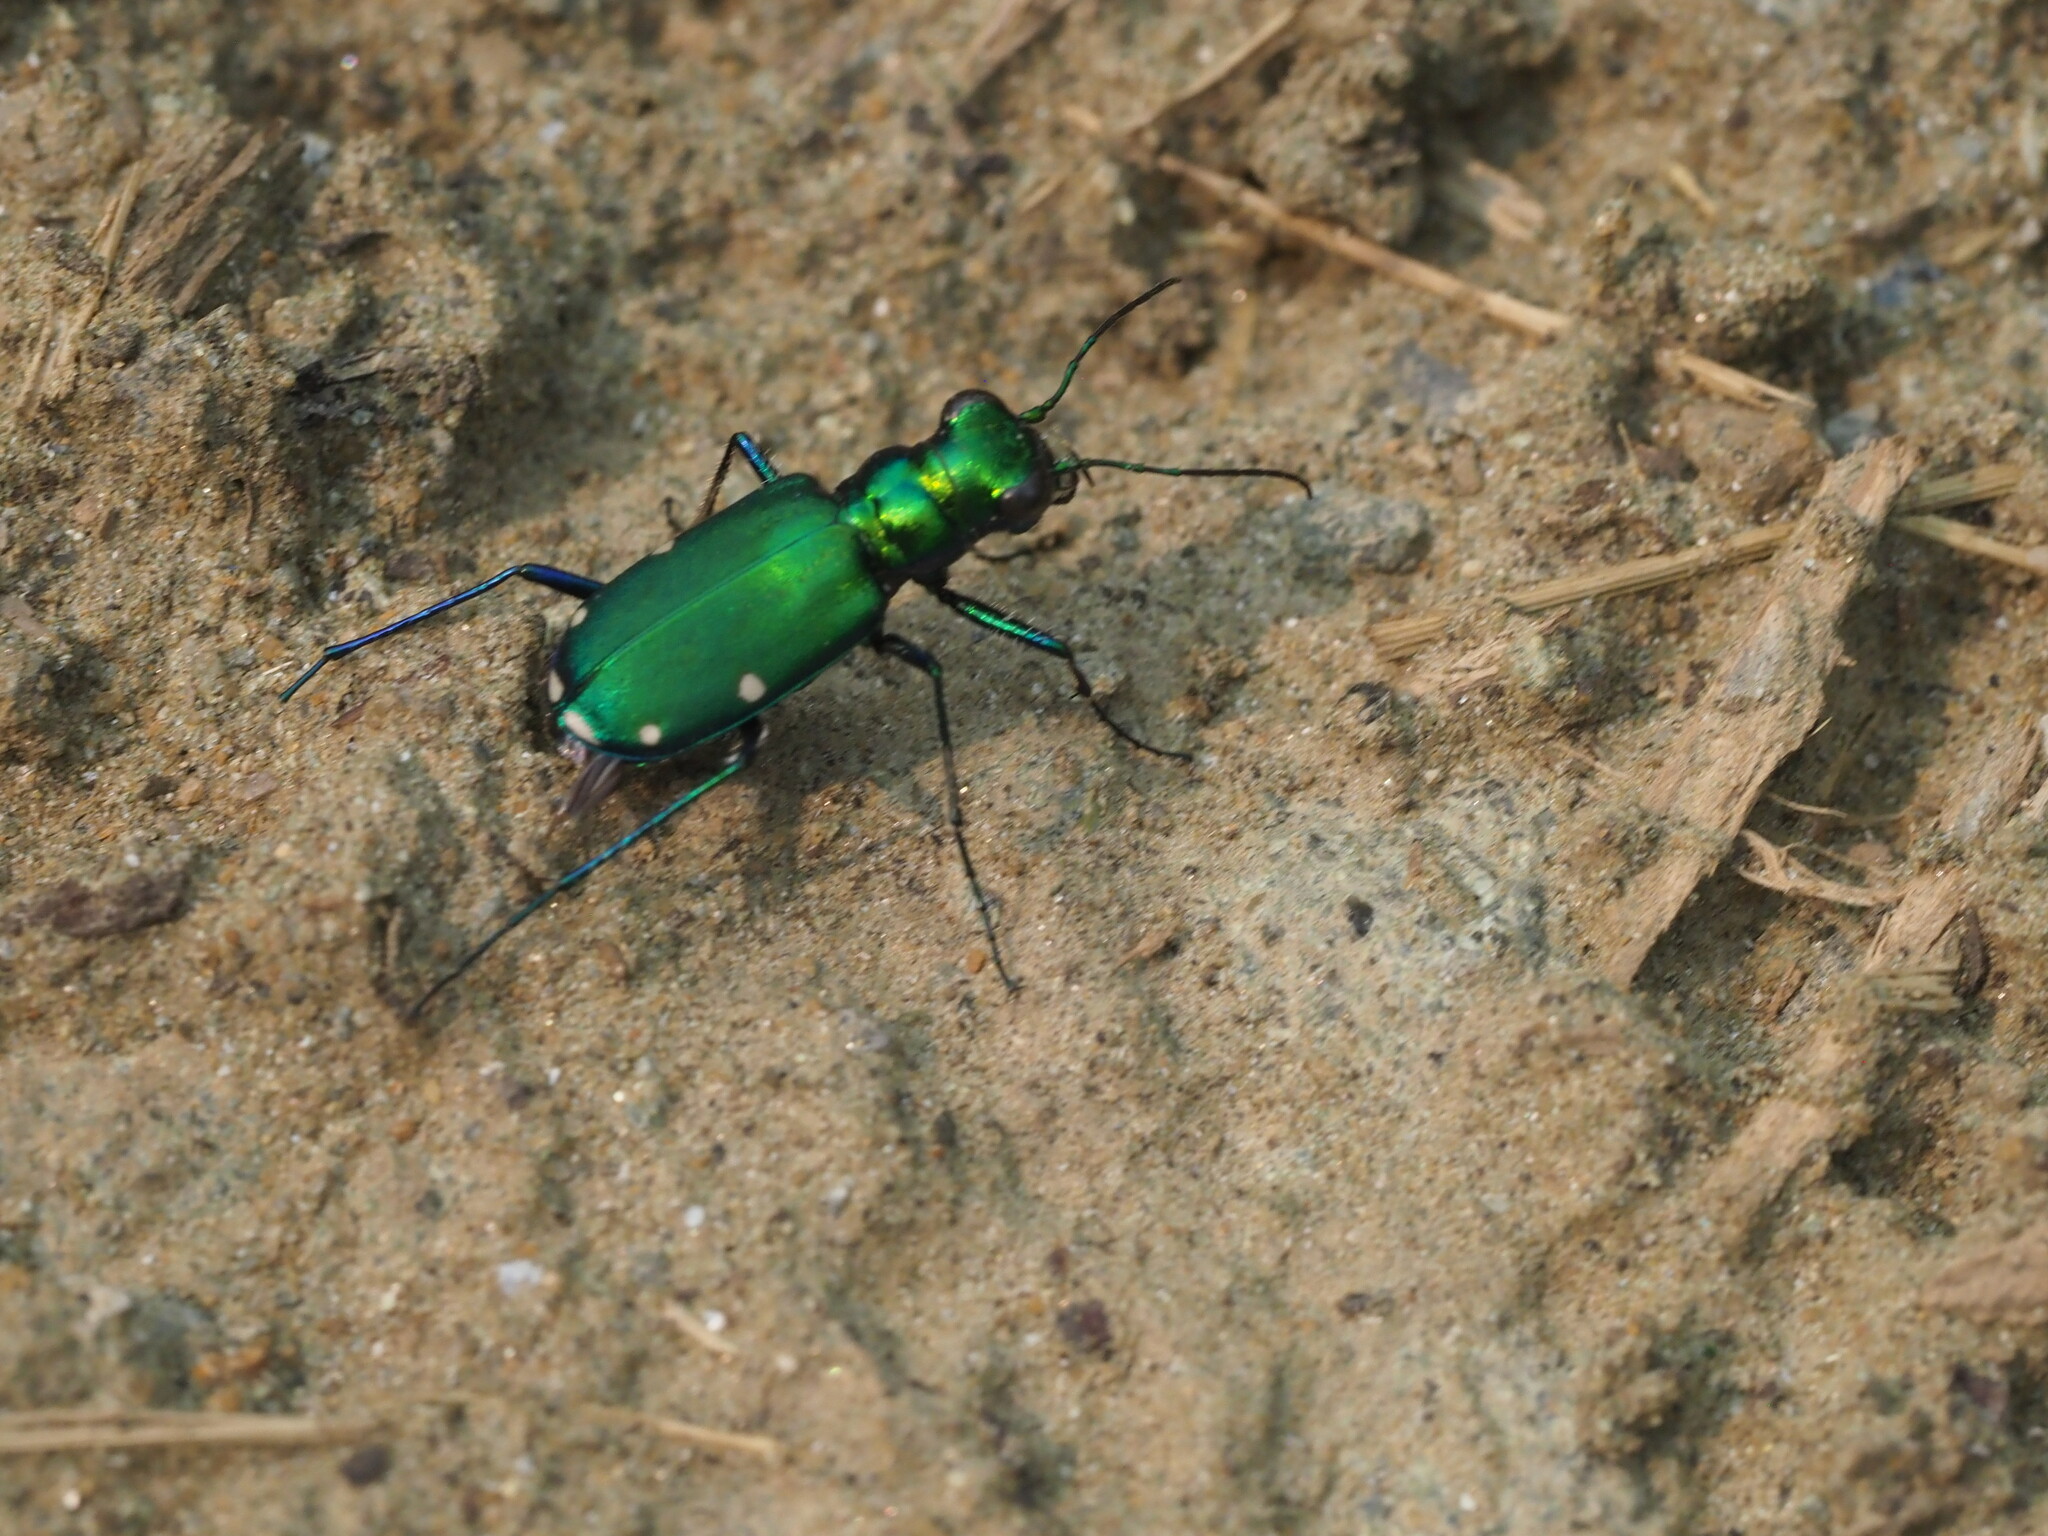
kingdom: Animalia
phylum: Arthropoda
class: Insecta
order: Coleoptera
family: Carabidae
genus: Cicindela
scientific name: Cicindela sexguttata
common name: Six-spotted tiger beetle
